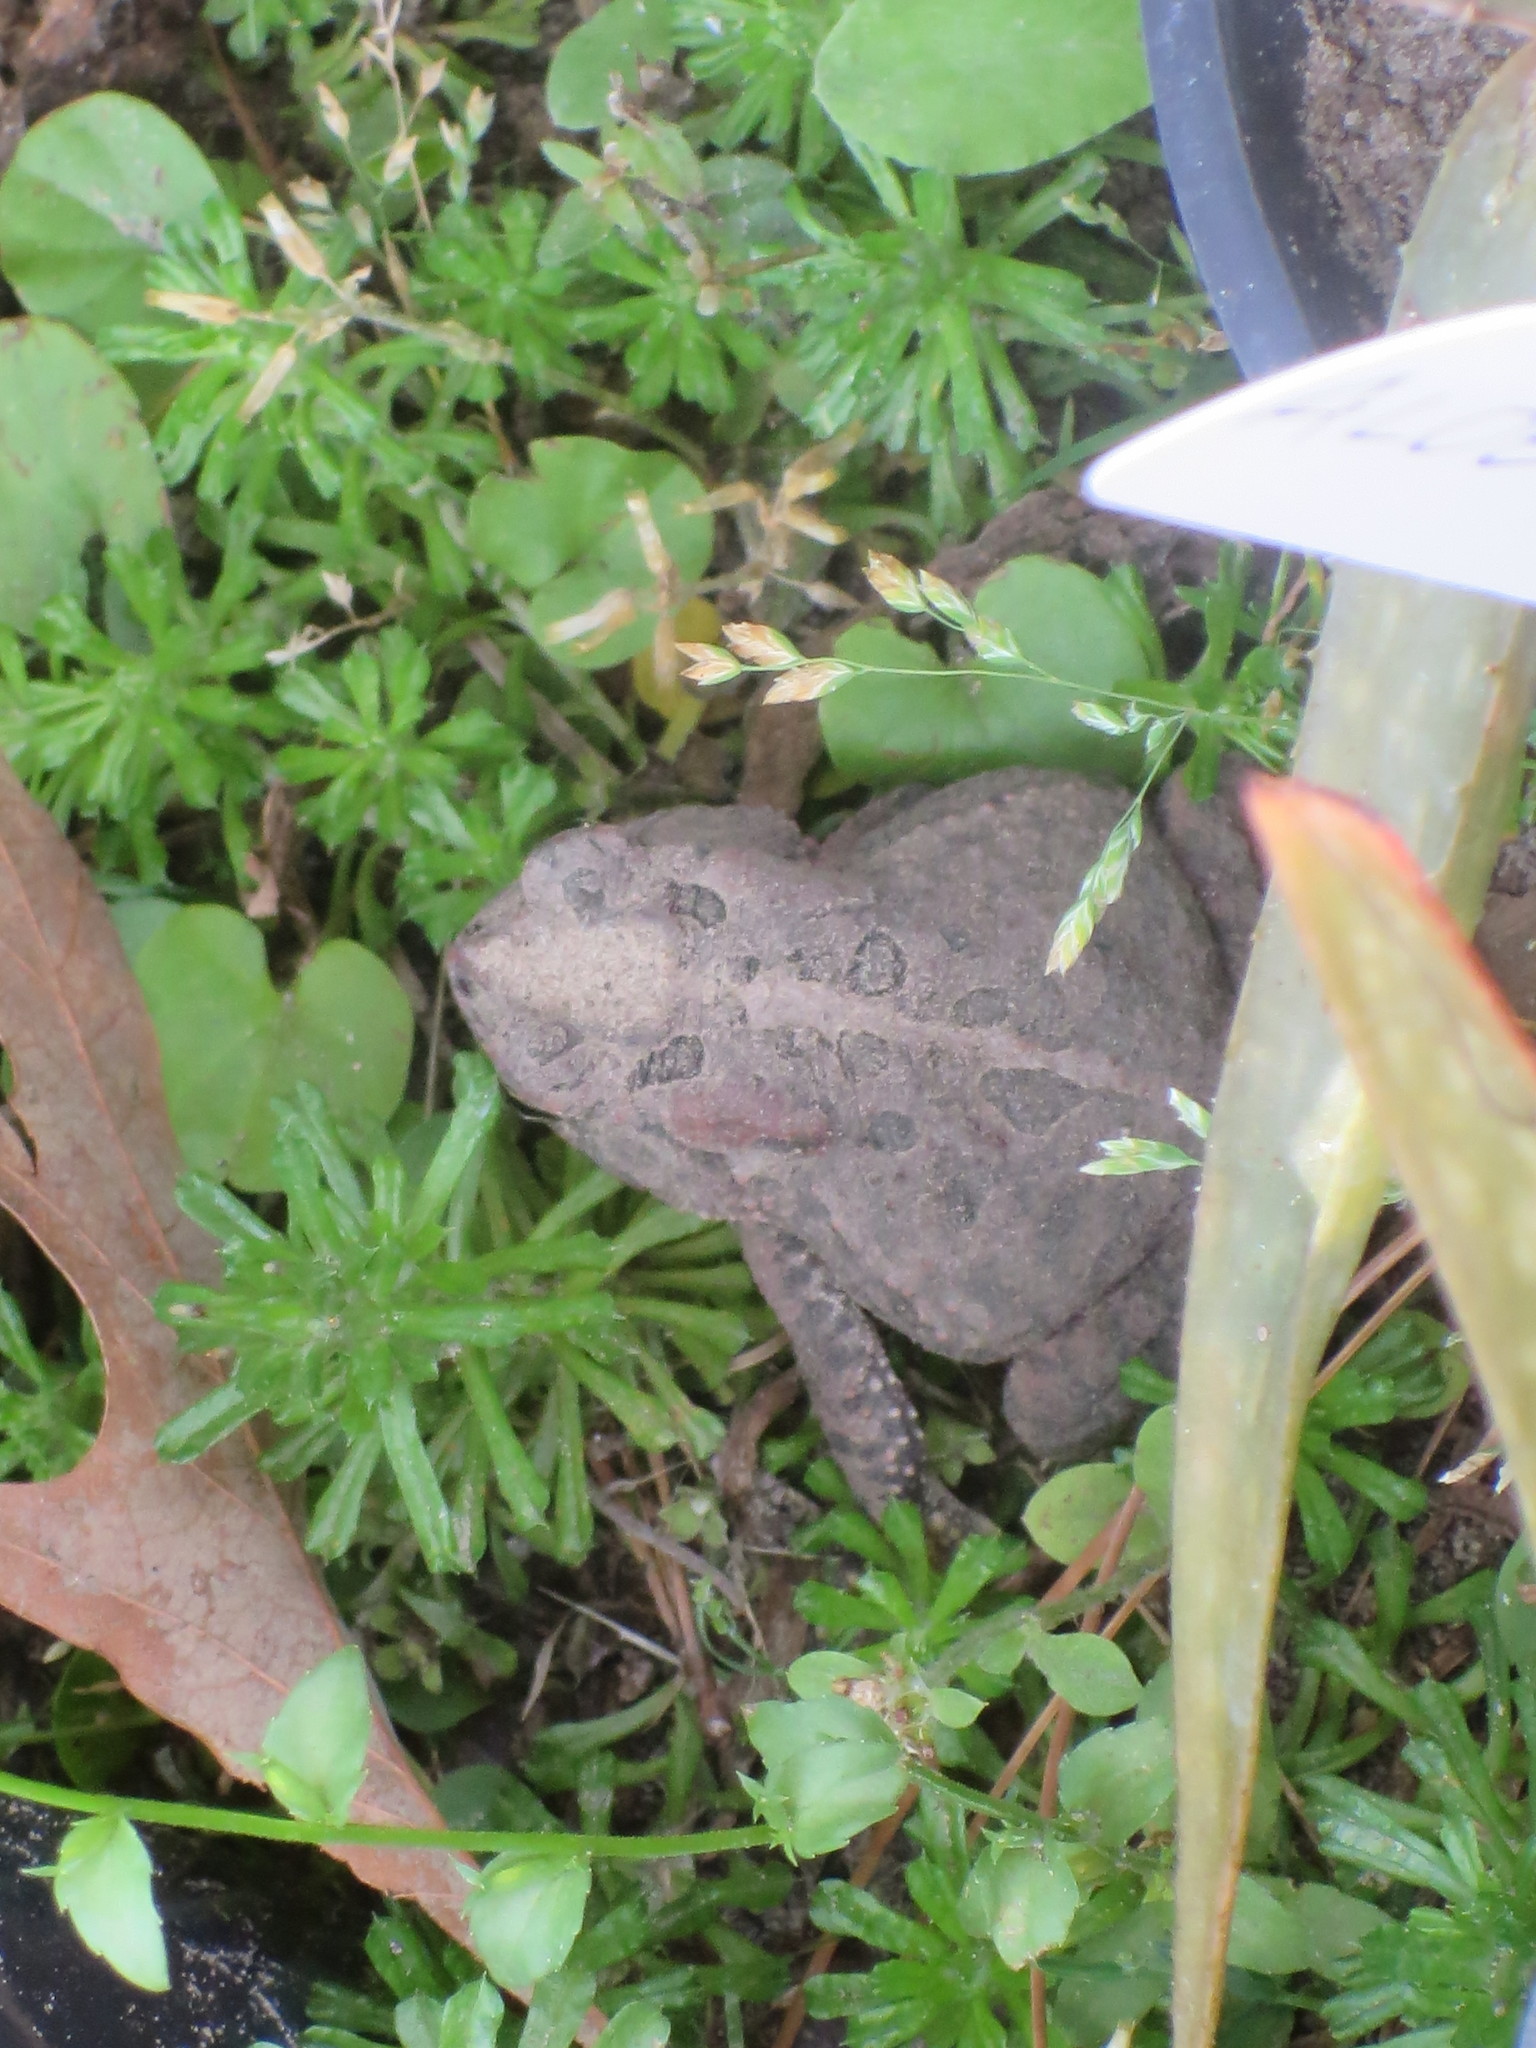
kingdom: Animalia
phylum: Chordata
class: Amphibia
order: Anura
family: Bufonidae
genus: Anaxyrus
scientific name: Anaxyrus terrestris
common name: Southern toad
